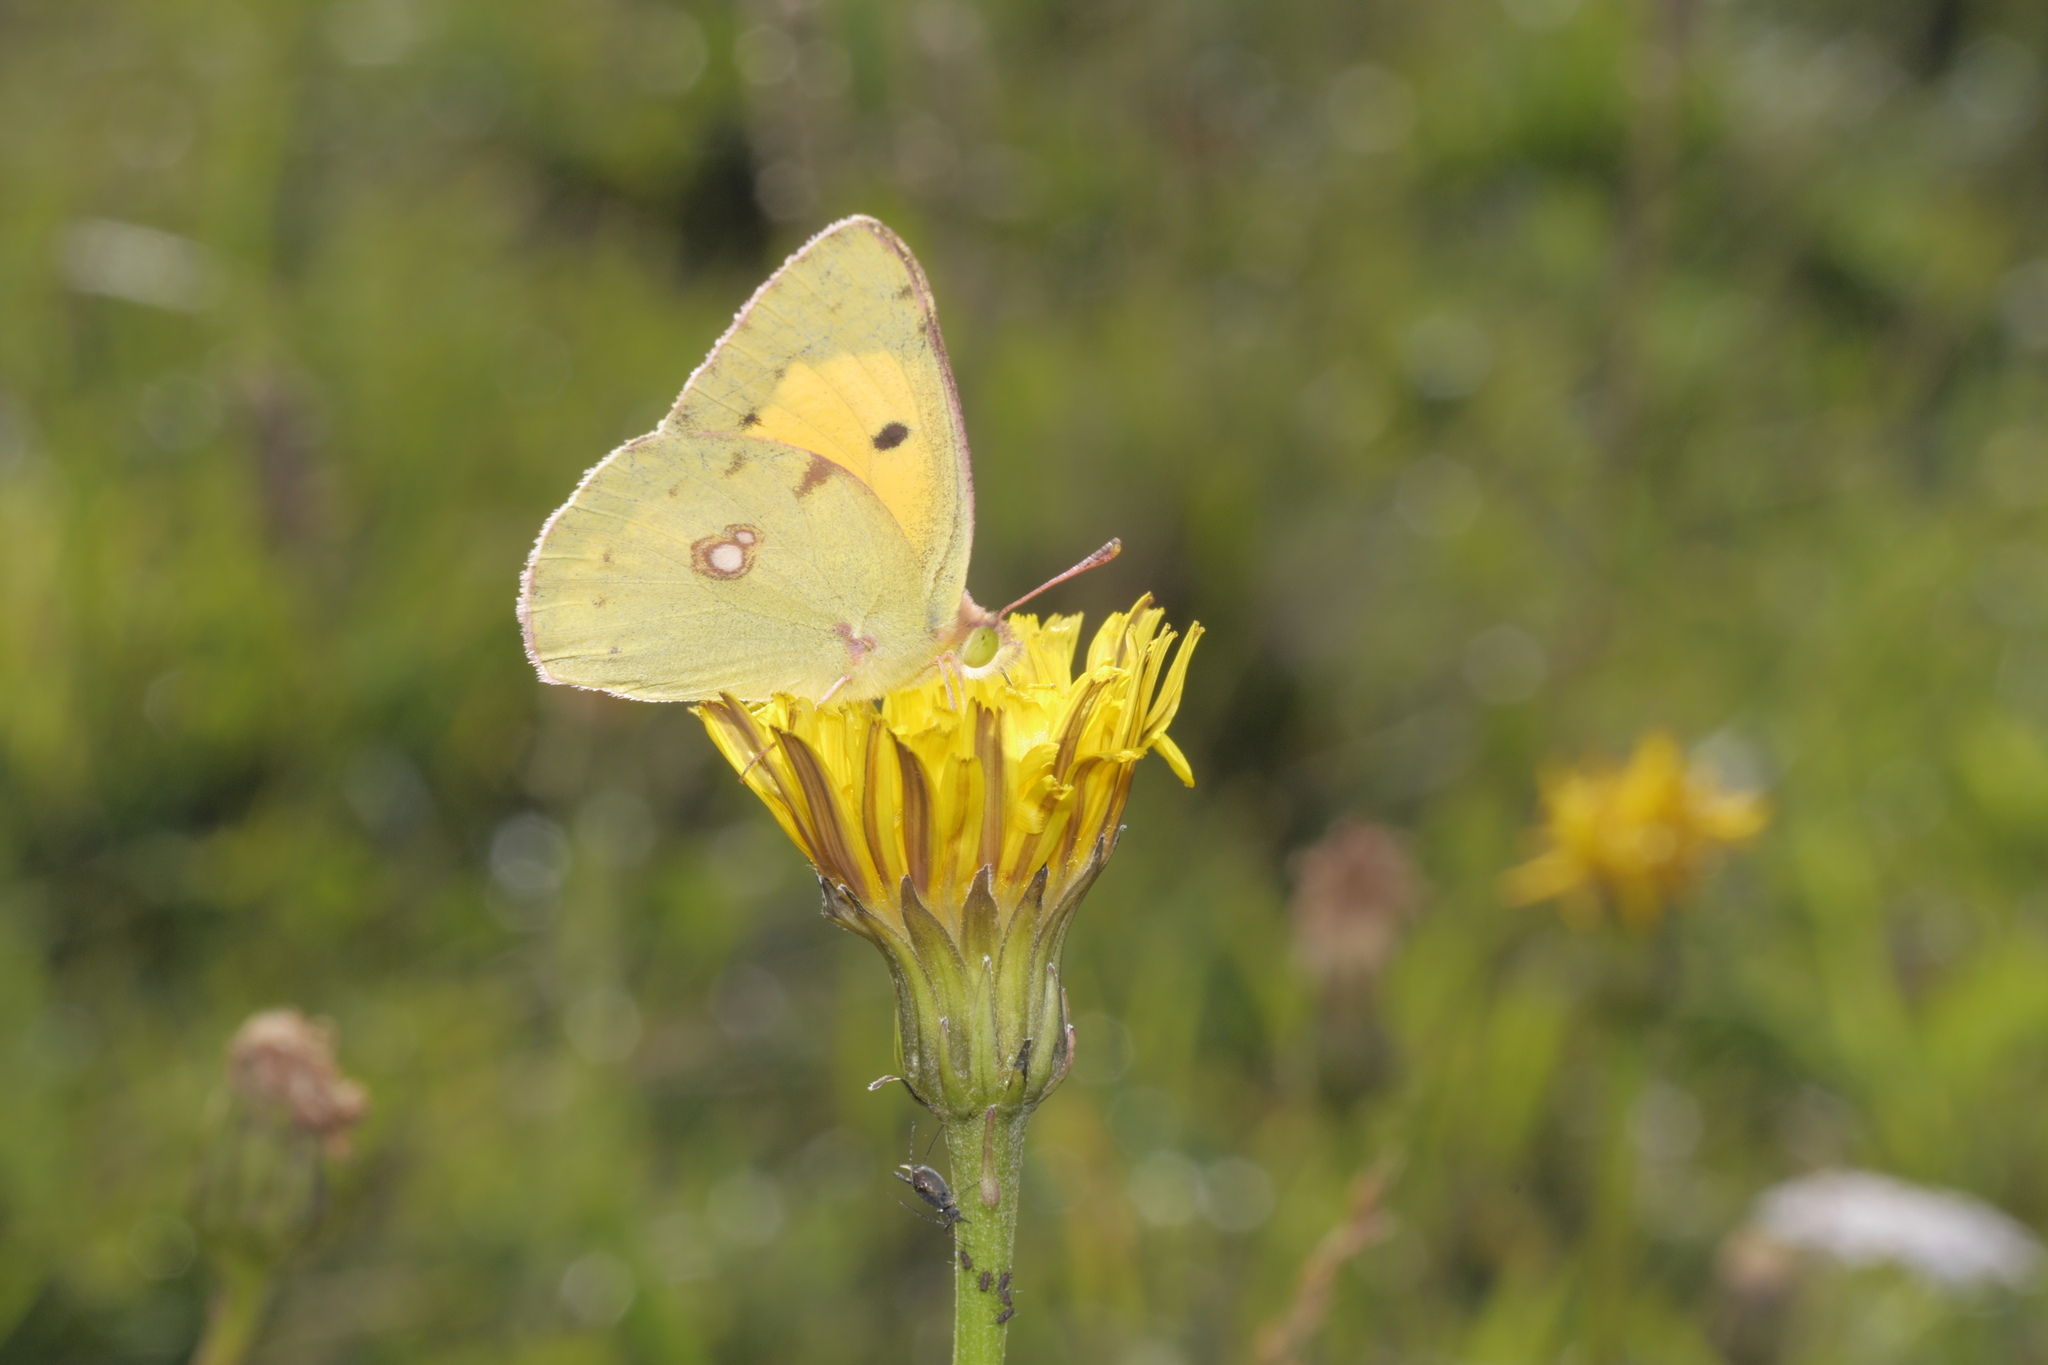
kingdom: Animalia
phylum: Arthropoda
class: Insecta
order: Lepidoptera
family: Pieridae
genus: Colias
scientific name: Colias croceus
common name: Clouded yellow
